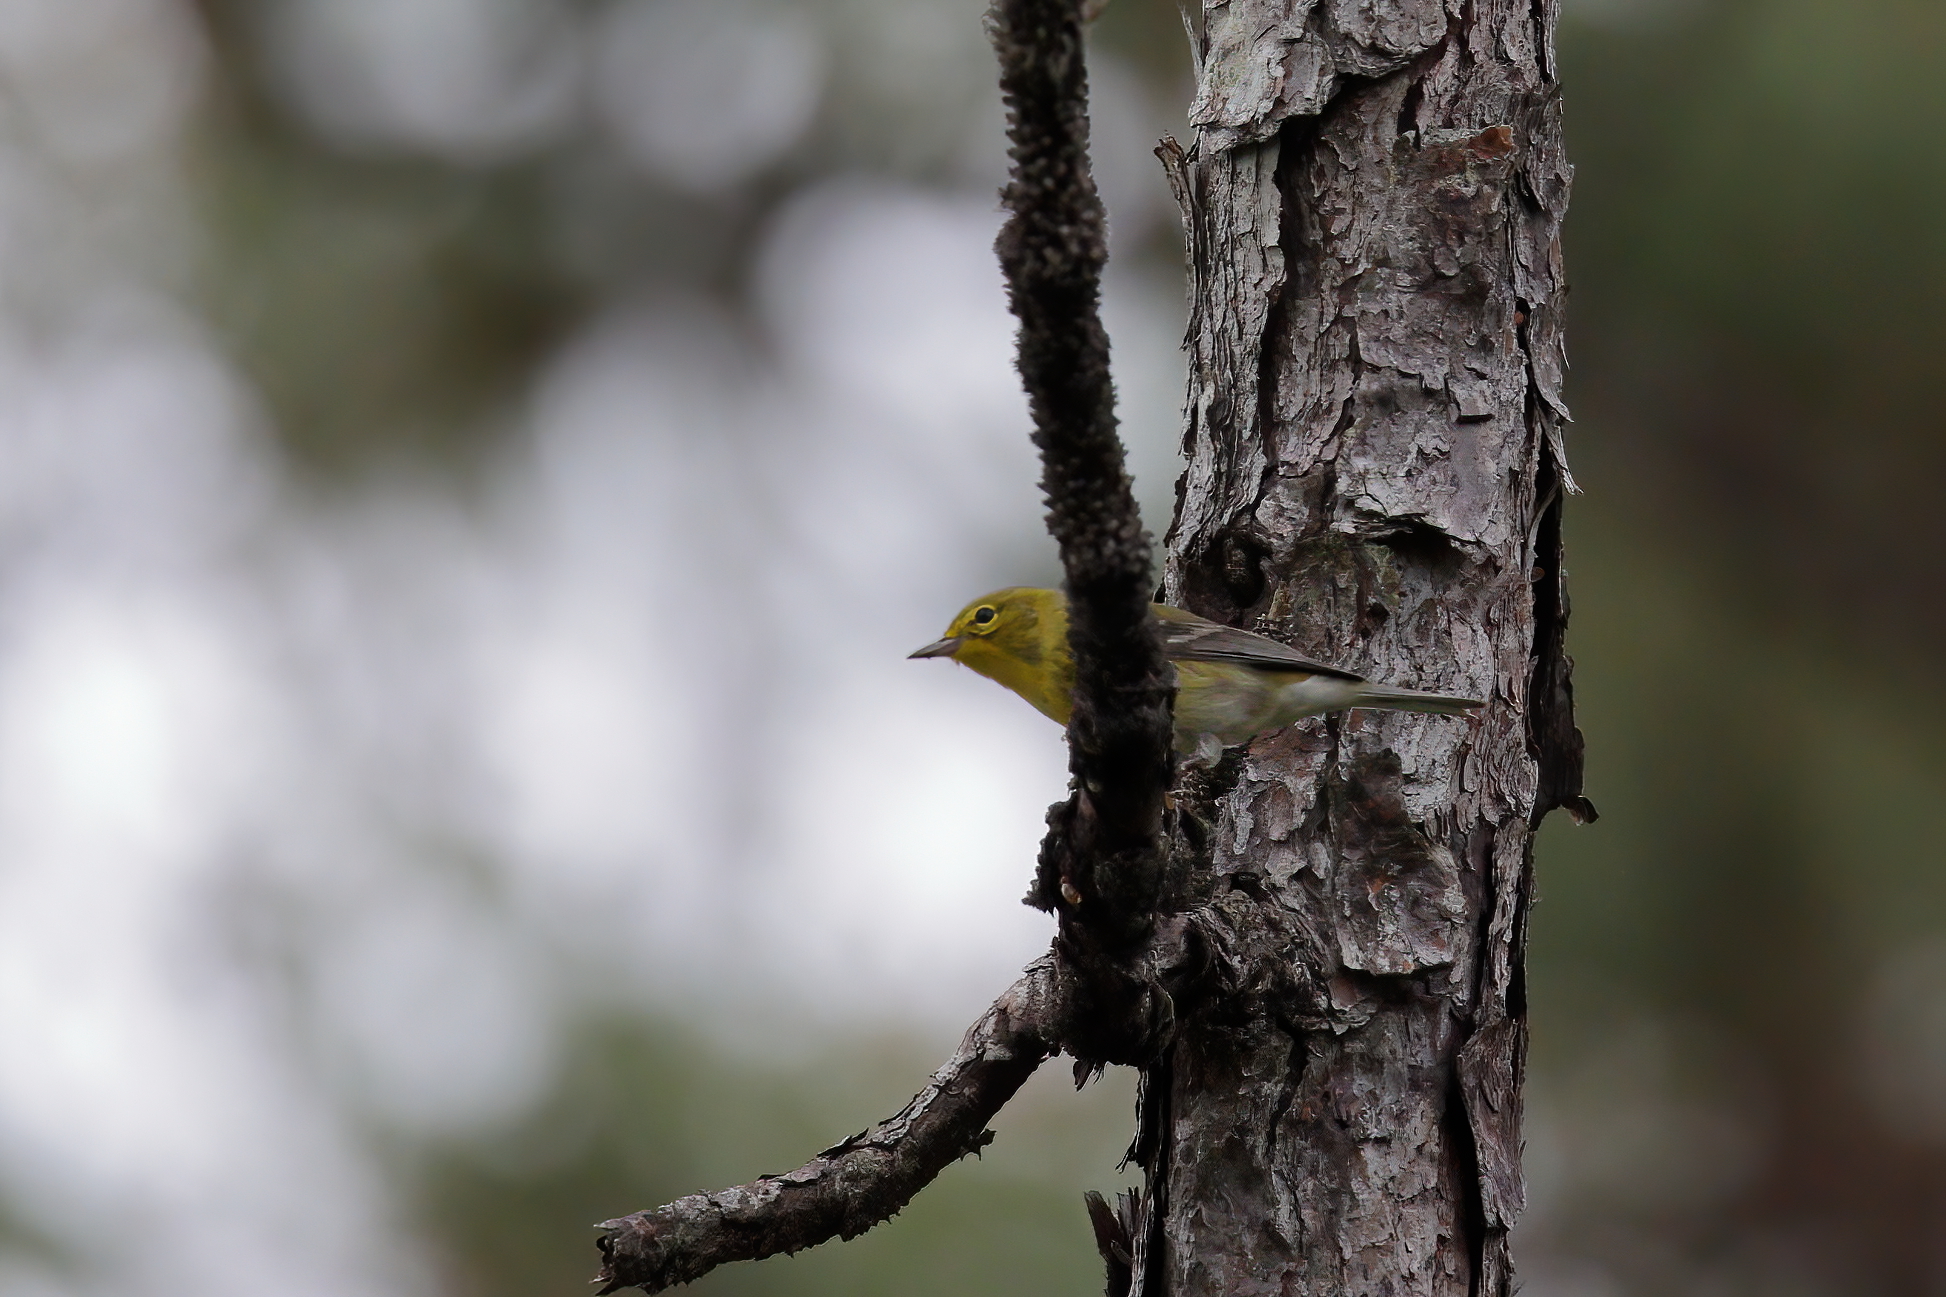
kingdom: Animalia
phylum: Chordata
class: Aves
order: Passeriformes
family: Parulidae
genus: Setophaga
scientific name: Setophaga pinus
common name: Pine warbler
